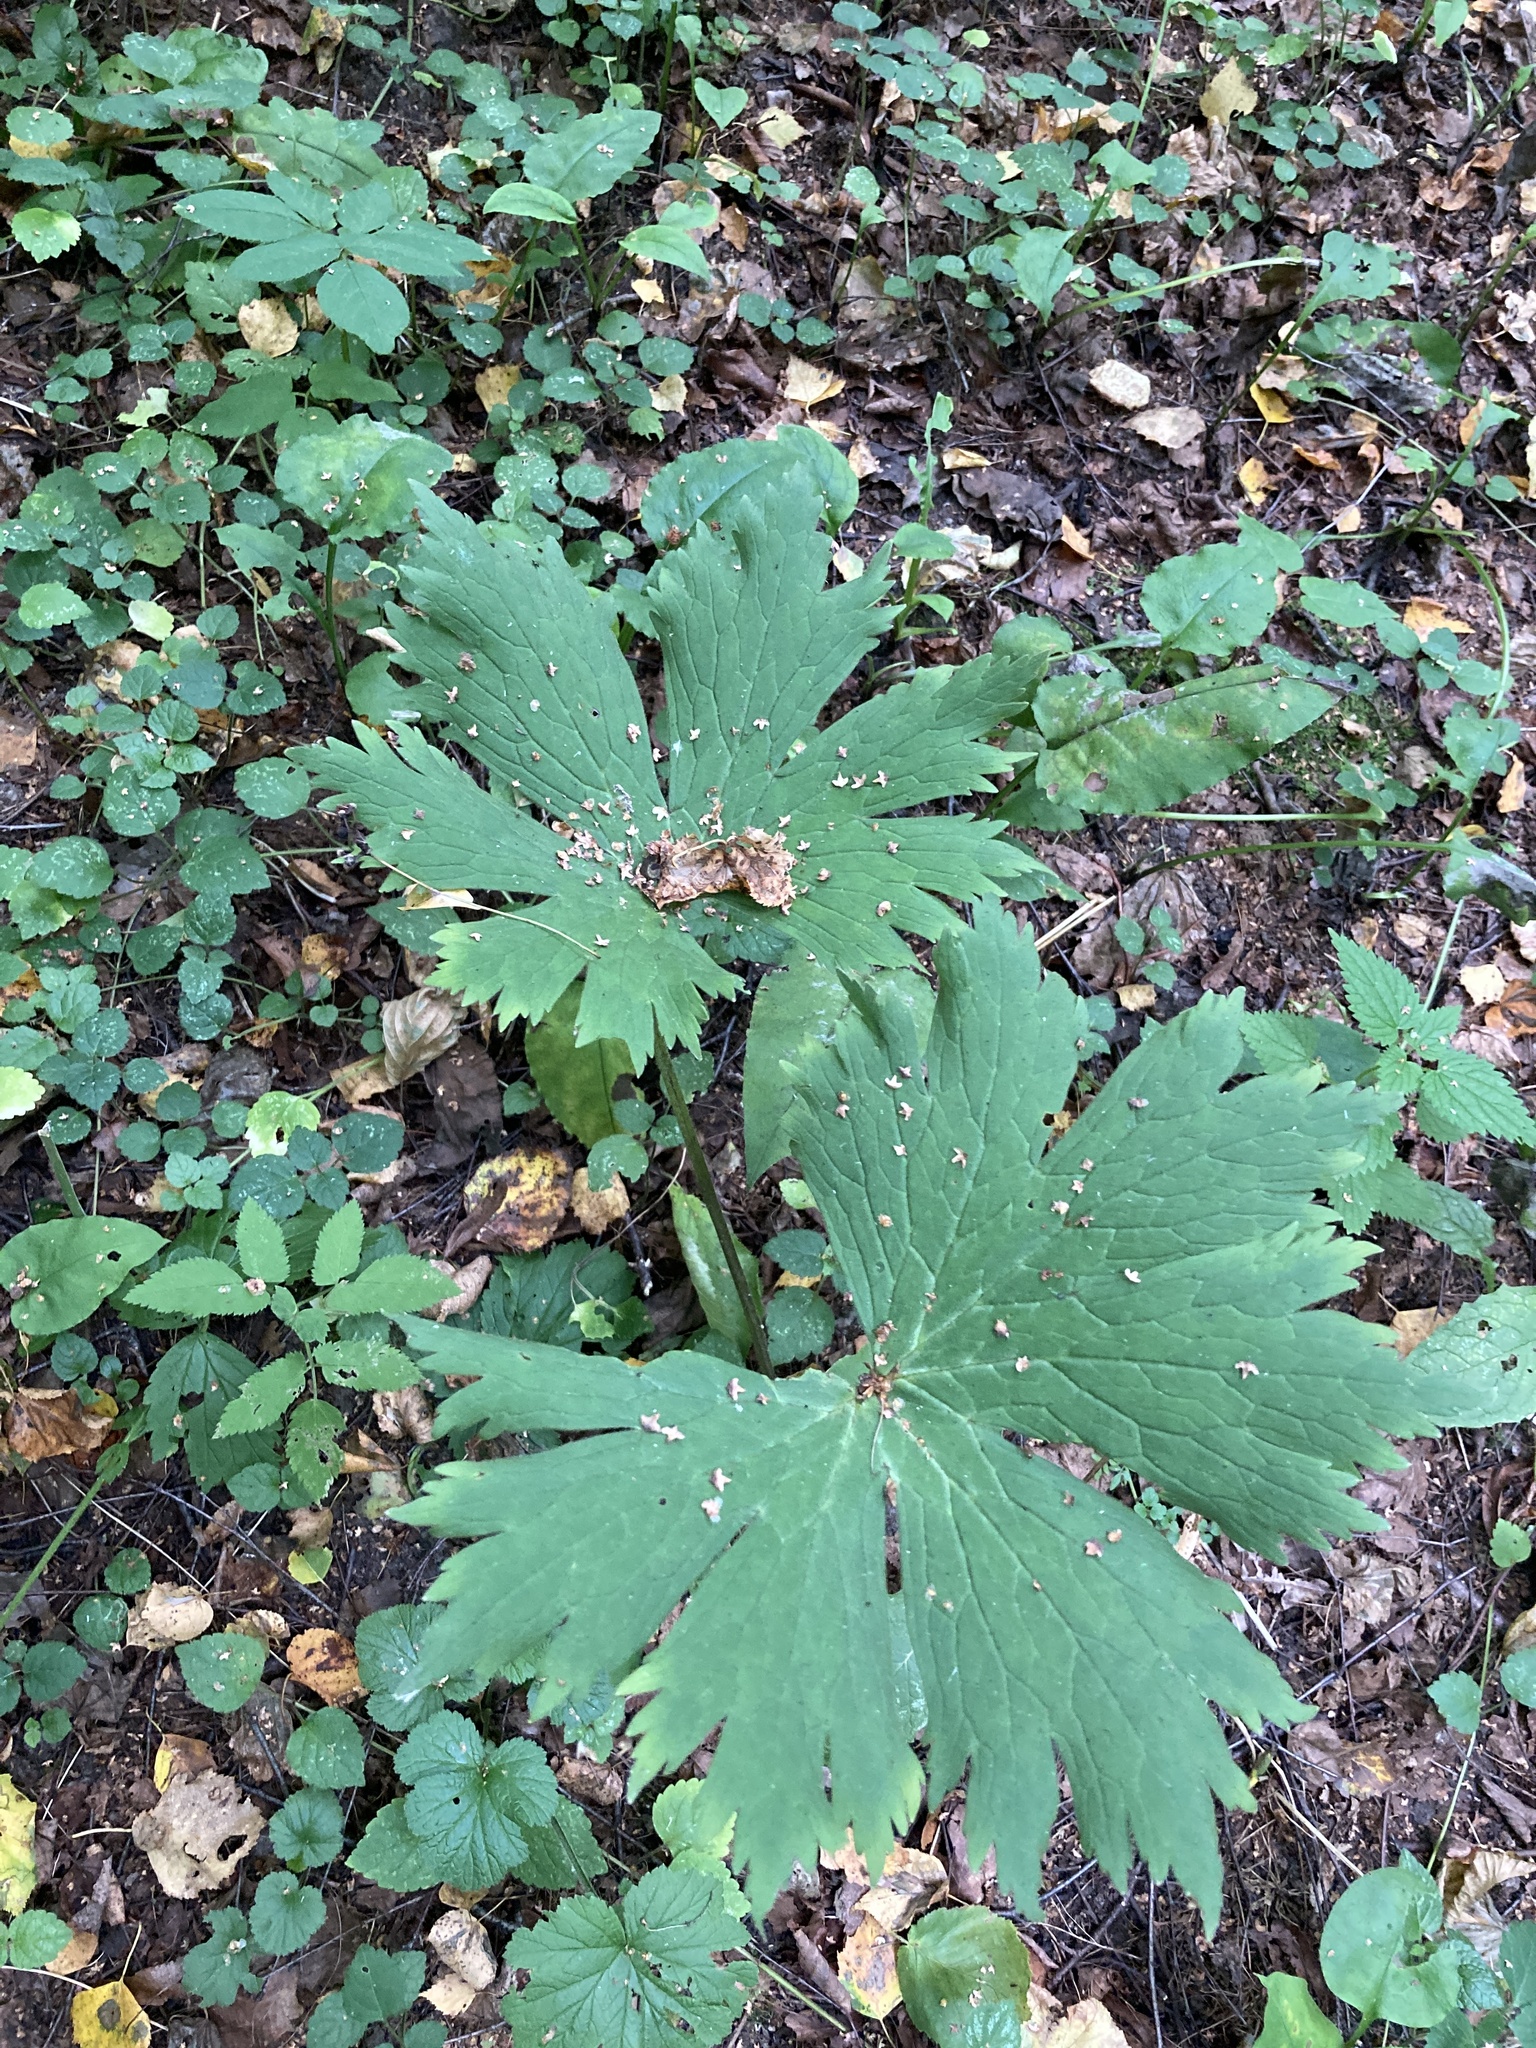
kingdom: Plantae
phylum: Tracheophyta
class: Magnoliopsida
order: Ranunculales
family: Ranunculaceae
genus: Aconitum
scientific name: Aconitum septentrionale
